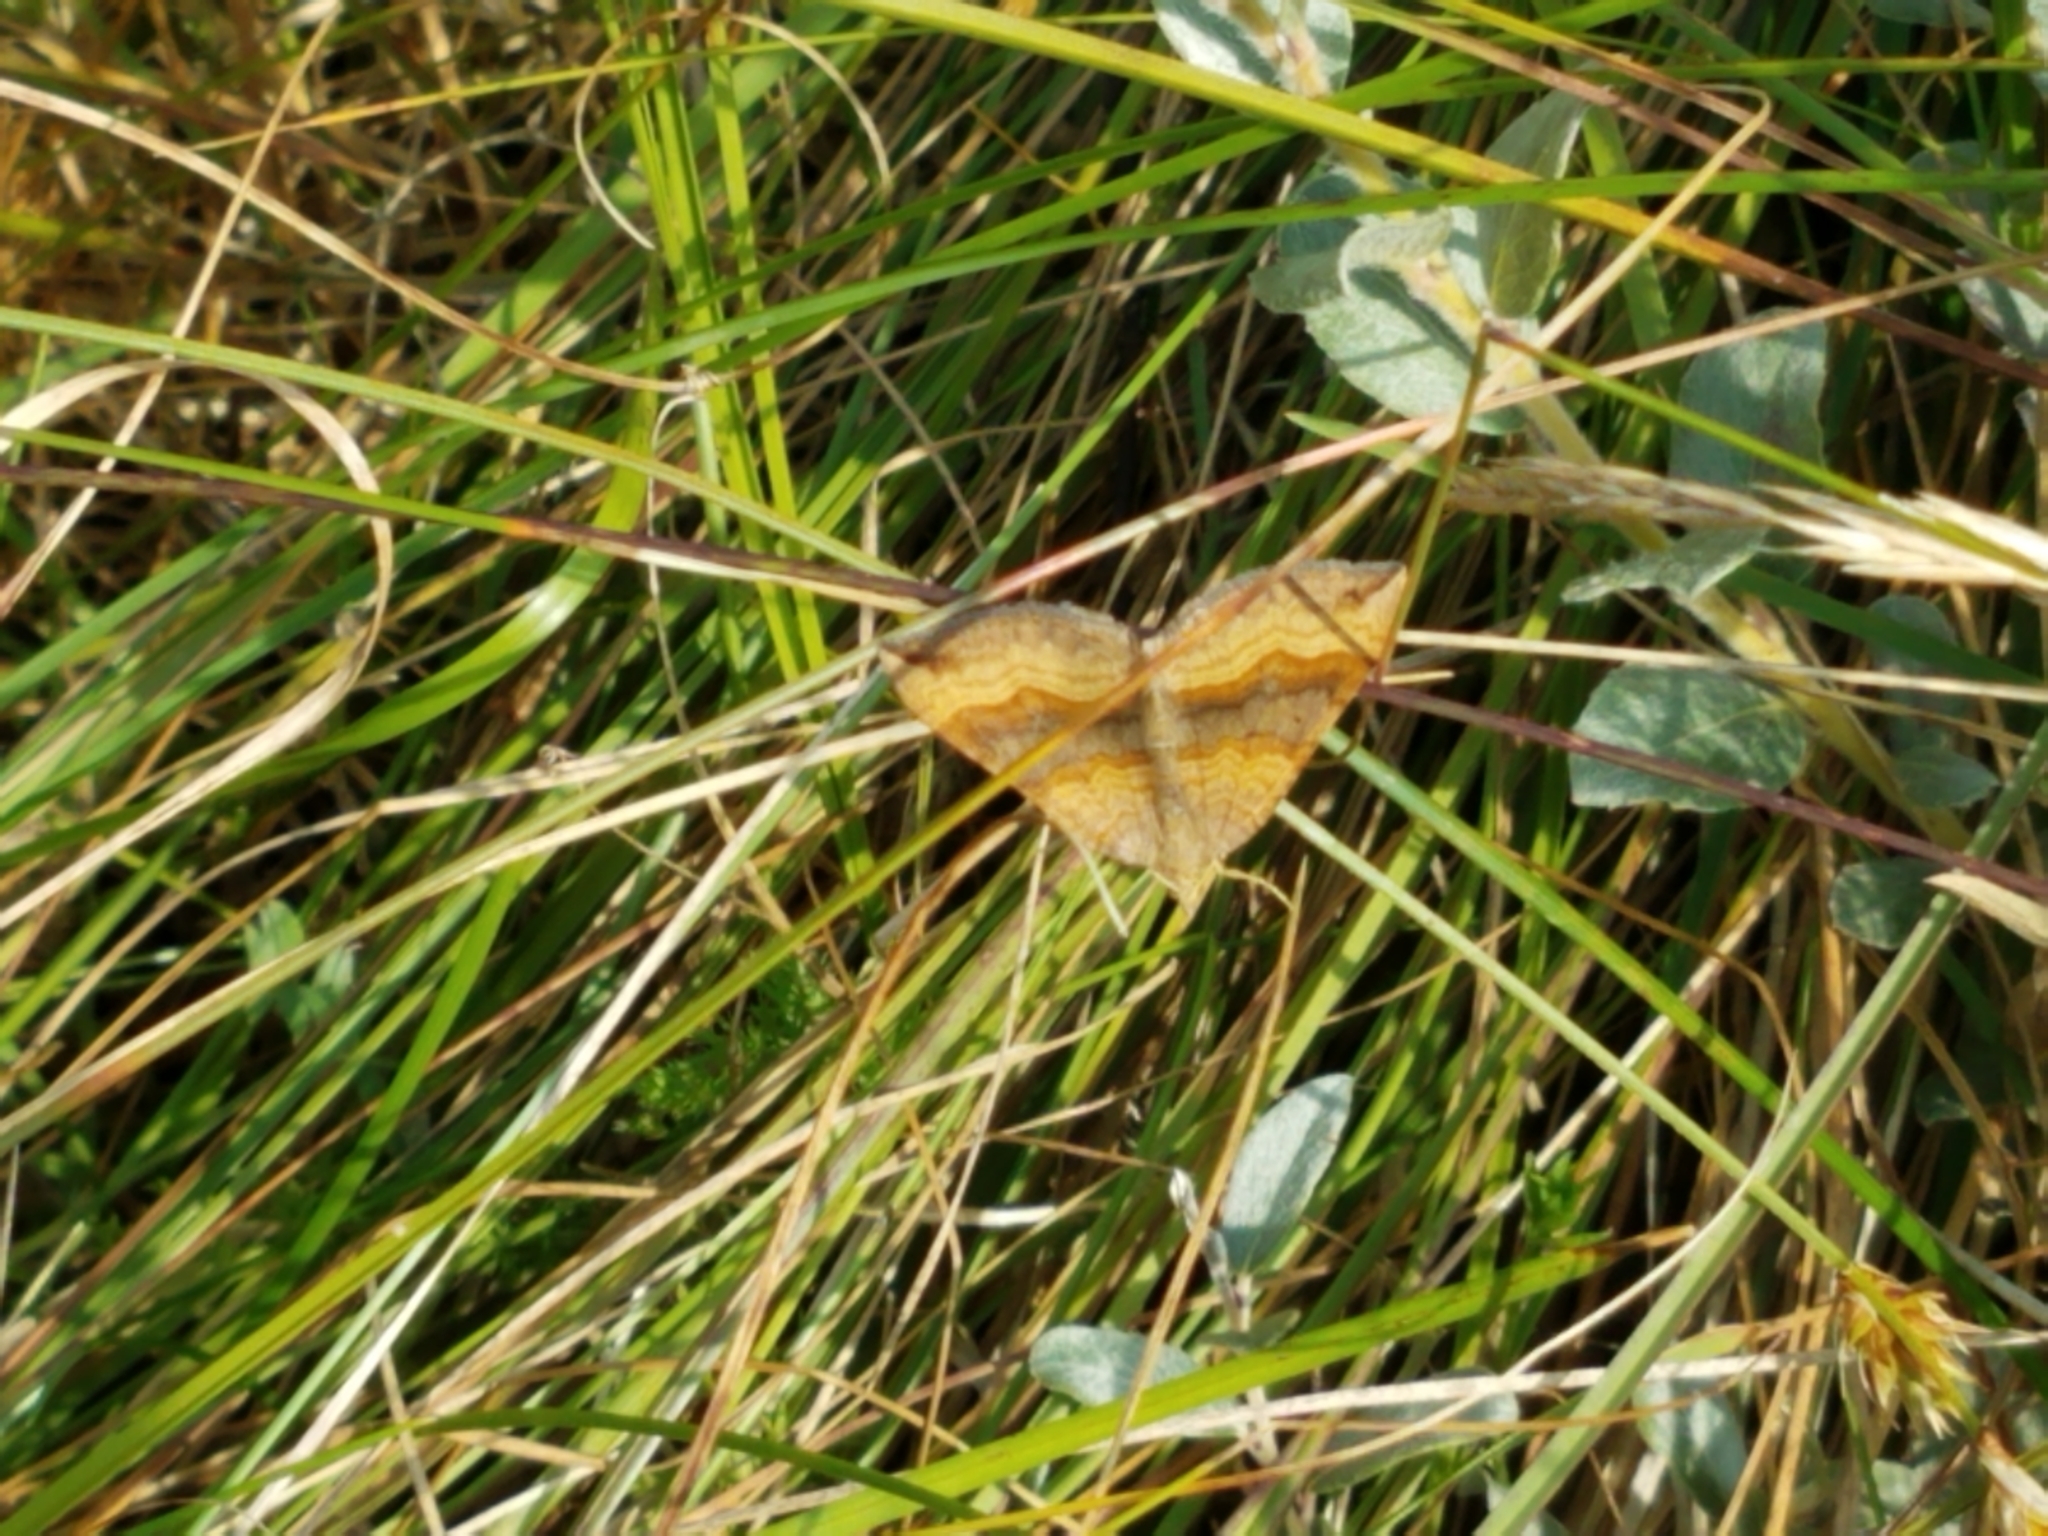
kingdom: Animalia
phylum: Arthropoda
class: Insecta
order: Lepidoptera
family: Geometridae
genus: Scotopteryx
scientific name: Scotopteryx chenopodiata
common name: Shaded broad-bar
